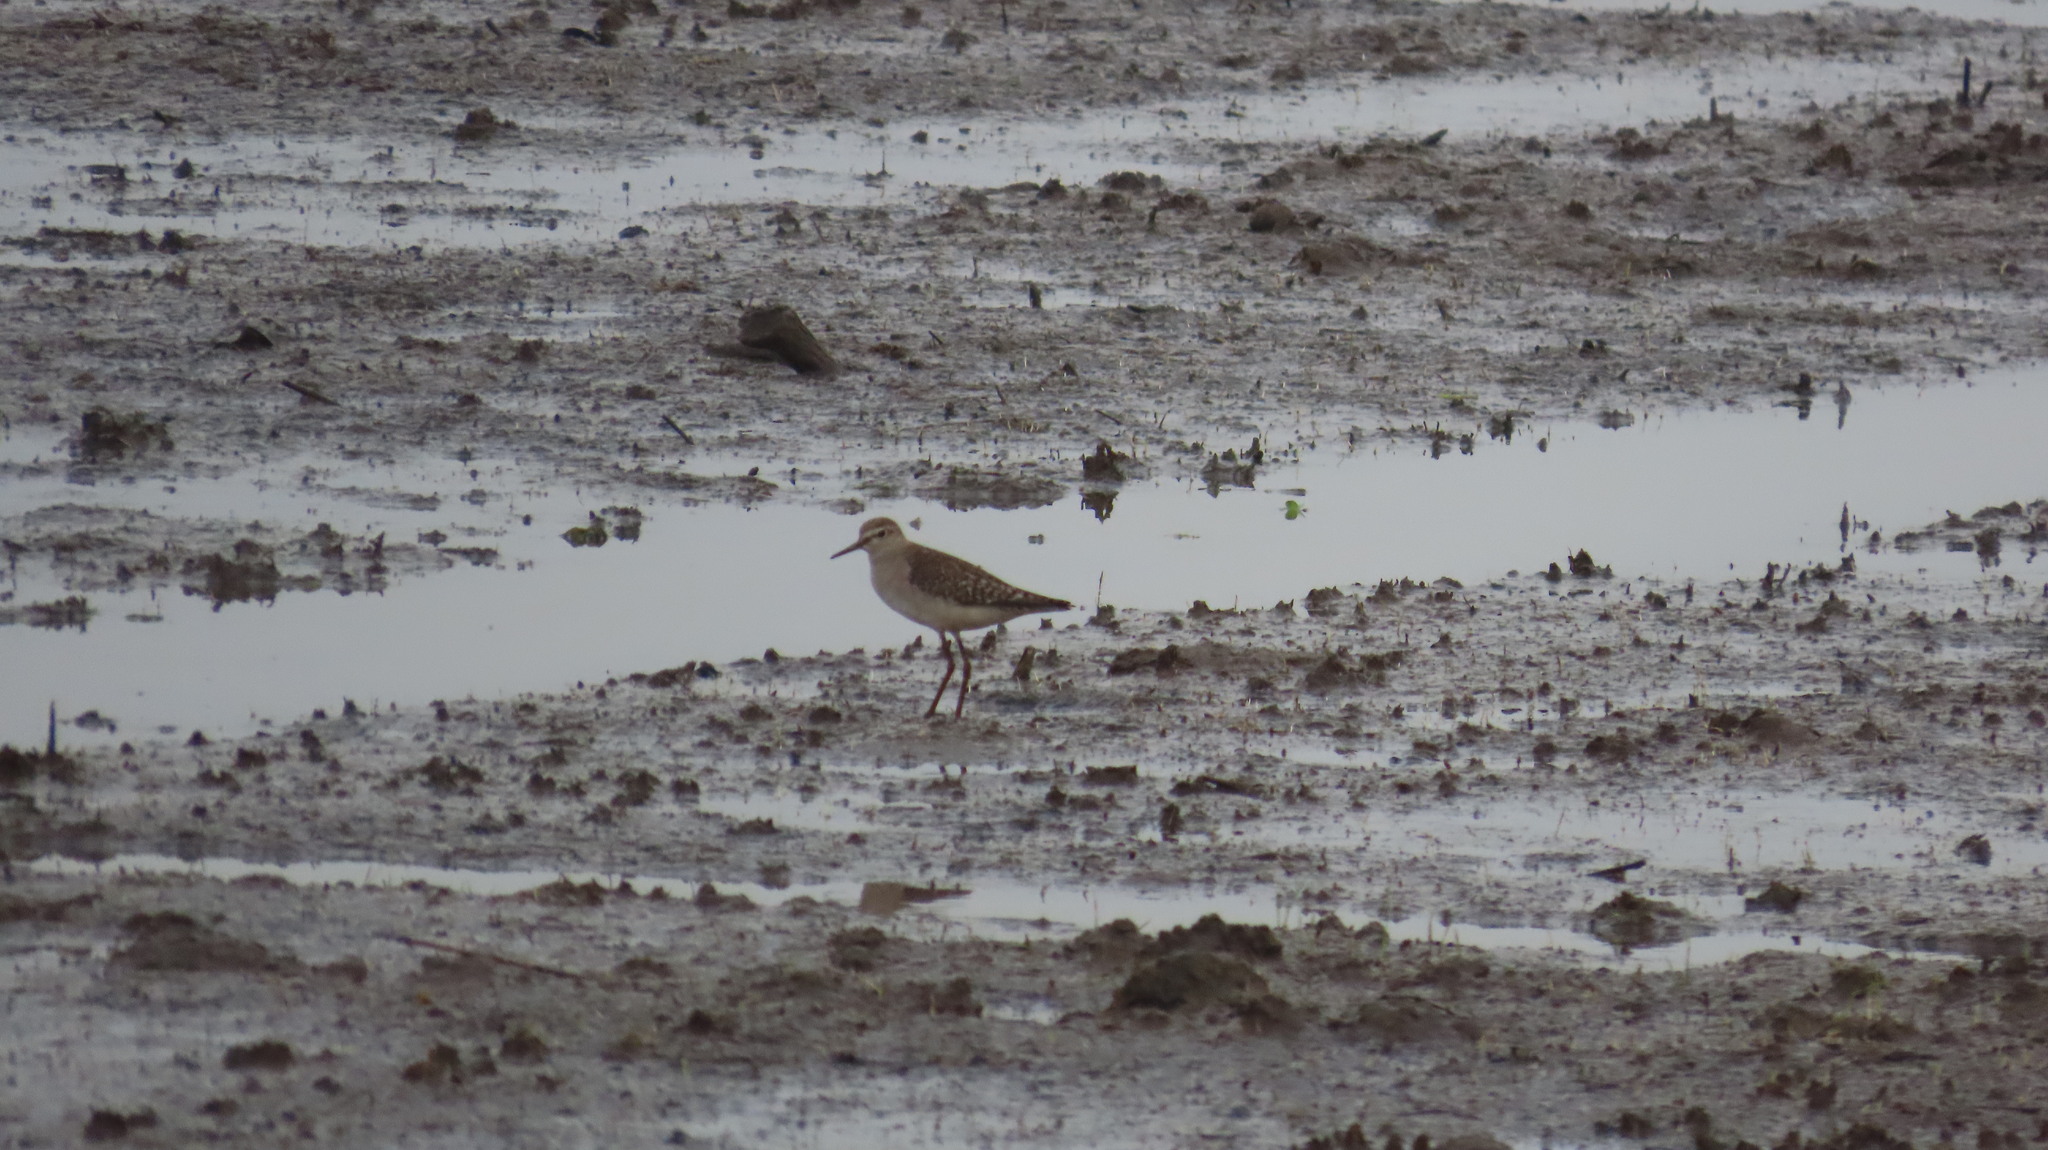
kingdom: Animalia
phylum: Chordata
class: Aves
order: Charadriiformes
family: Scolopacidae
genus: Tringa
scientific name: Tringa glareola
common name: Wood sandpiper
